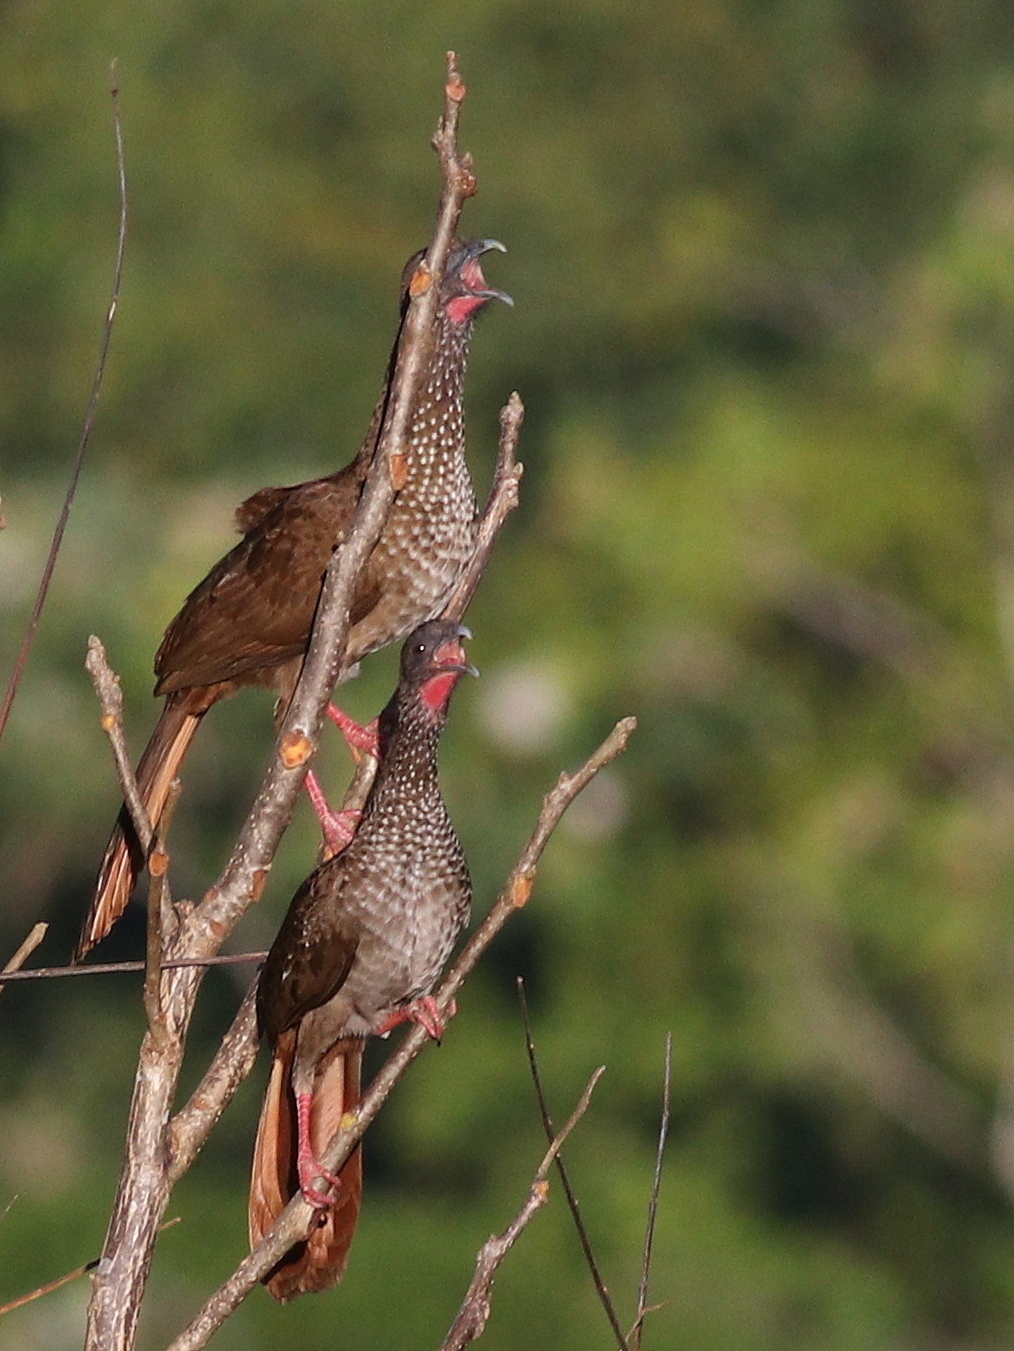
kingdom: Animalia
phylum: Chordata
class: Aves
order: Galliformes
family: Cracidae
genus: Ortalis
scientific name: Ortalis guttata
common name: Speckled chachalaca
